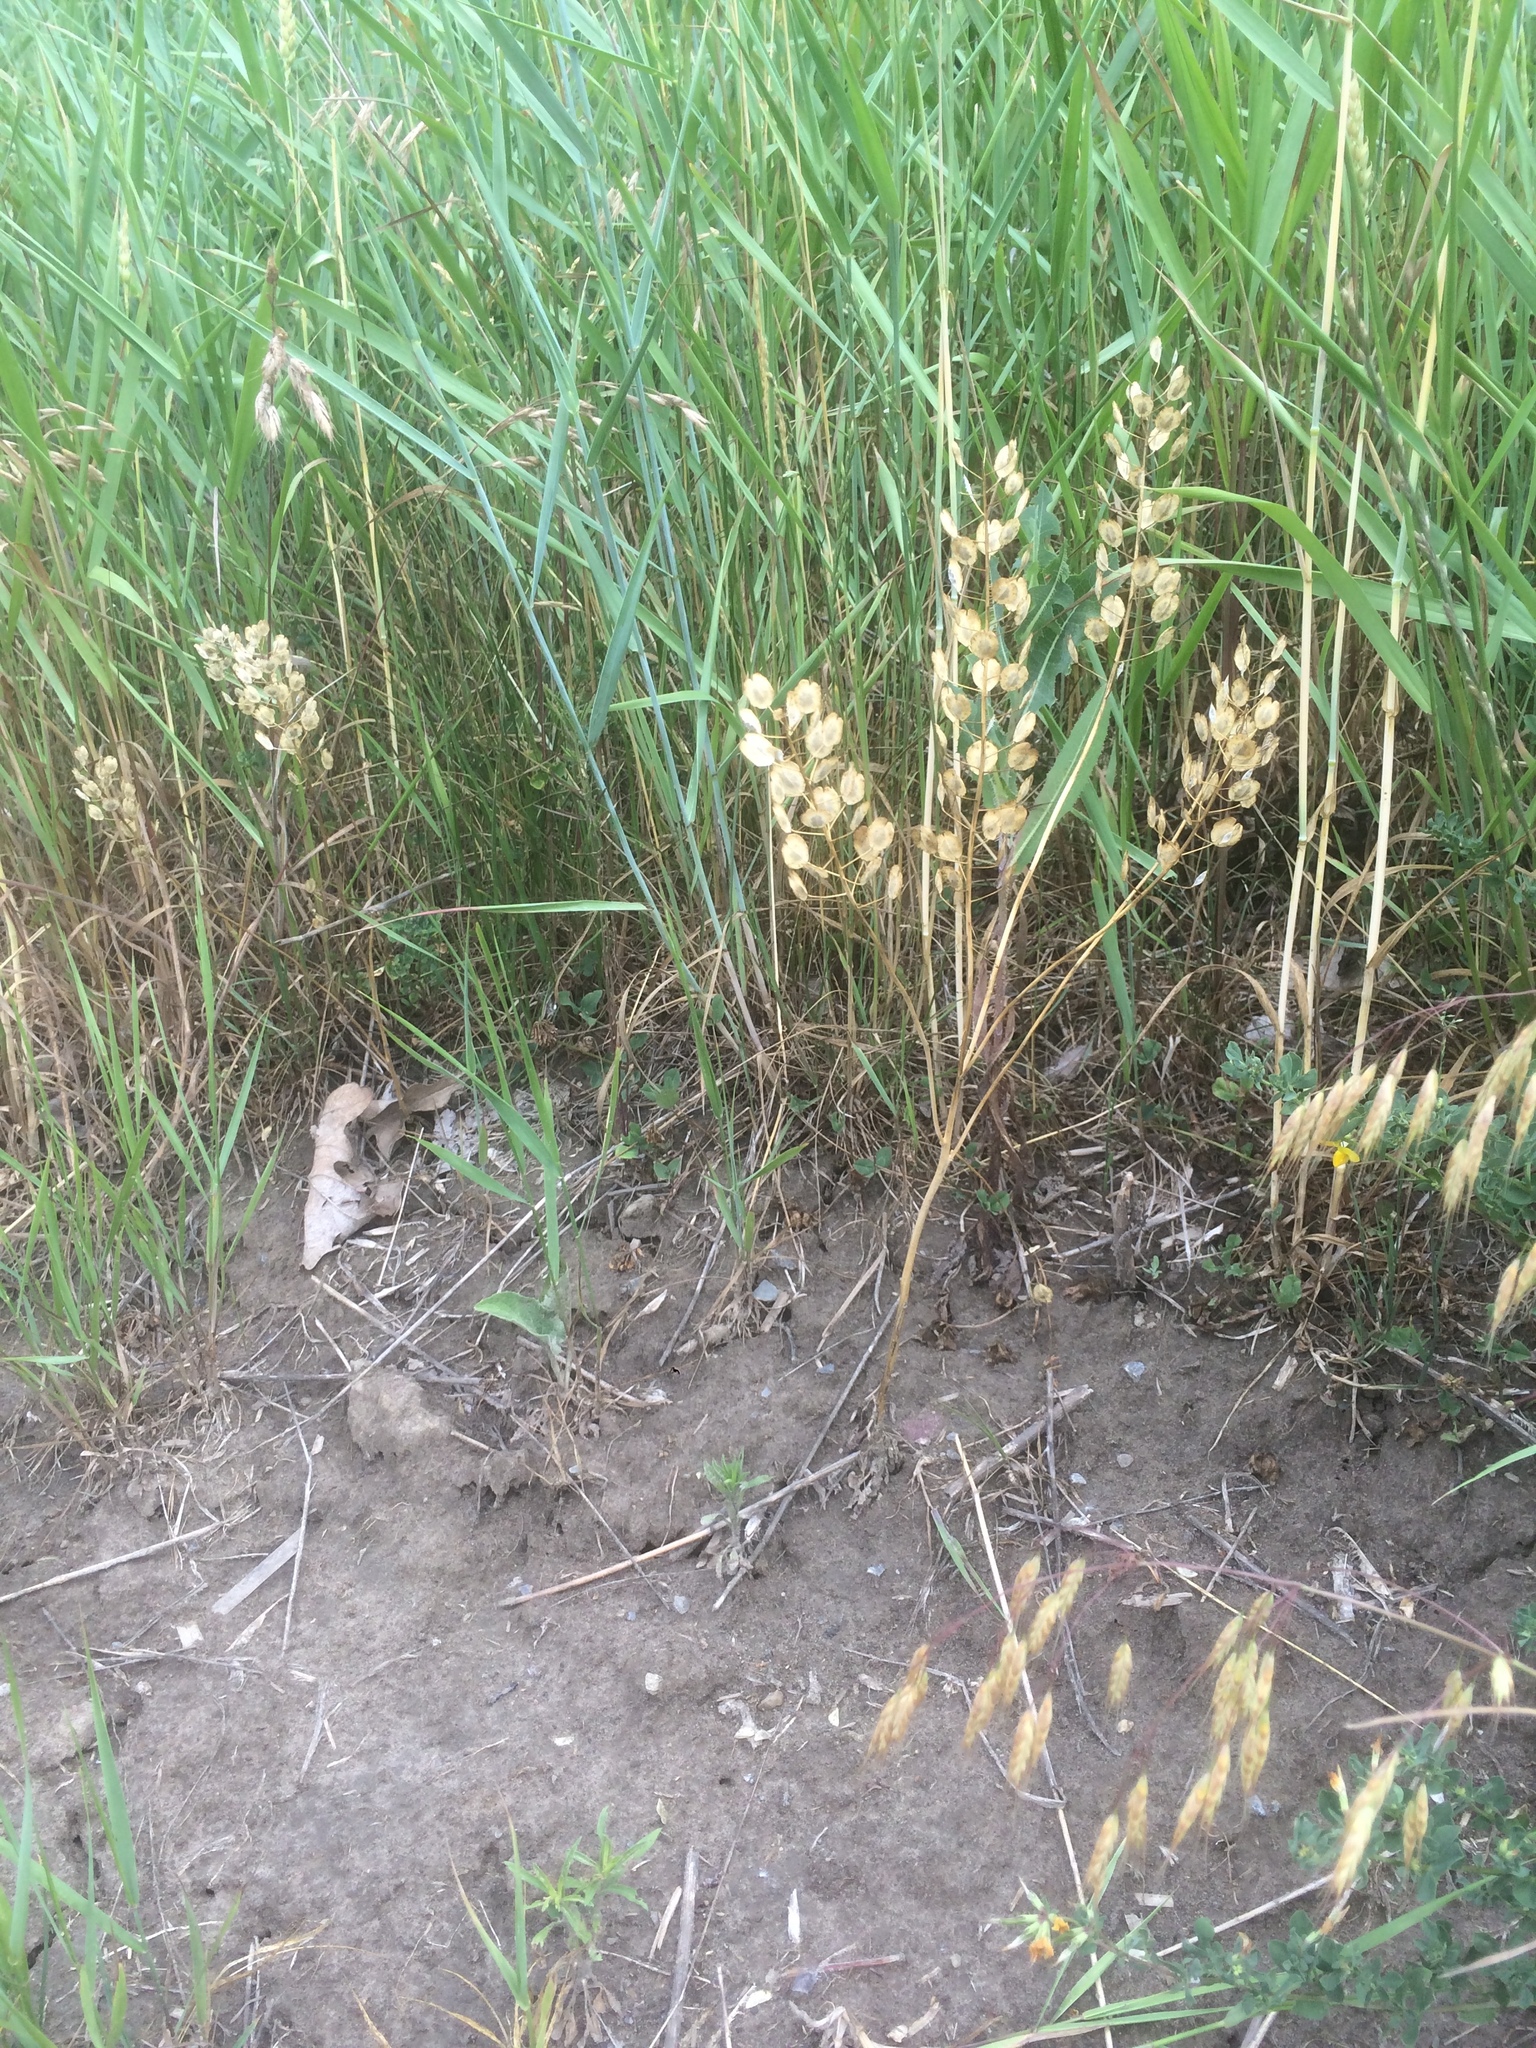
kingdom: Plantae
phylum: Tracheophyta
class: Magnoliopsida
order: Brassicales
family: Brassicaceae
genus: Thlaspi
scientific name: Thlaspi arvense
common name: Field pennycress
